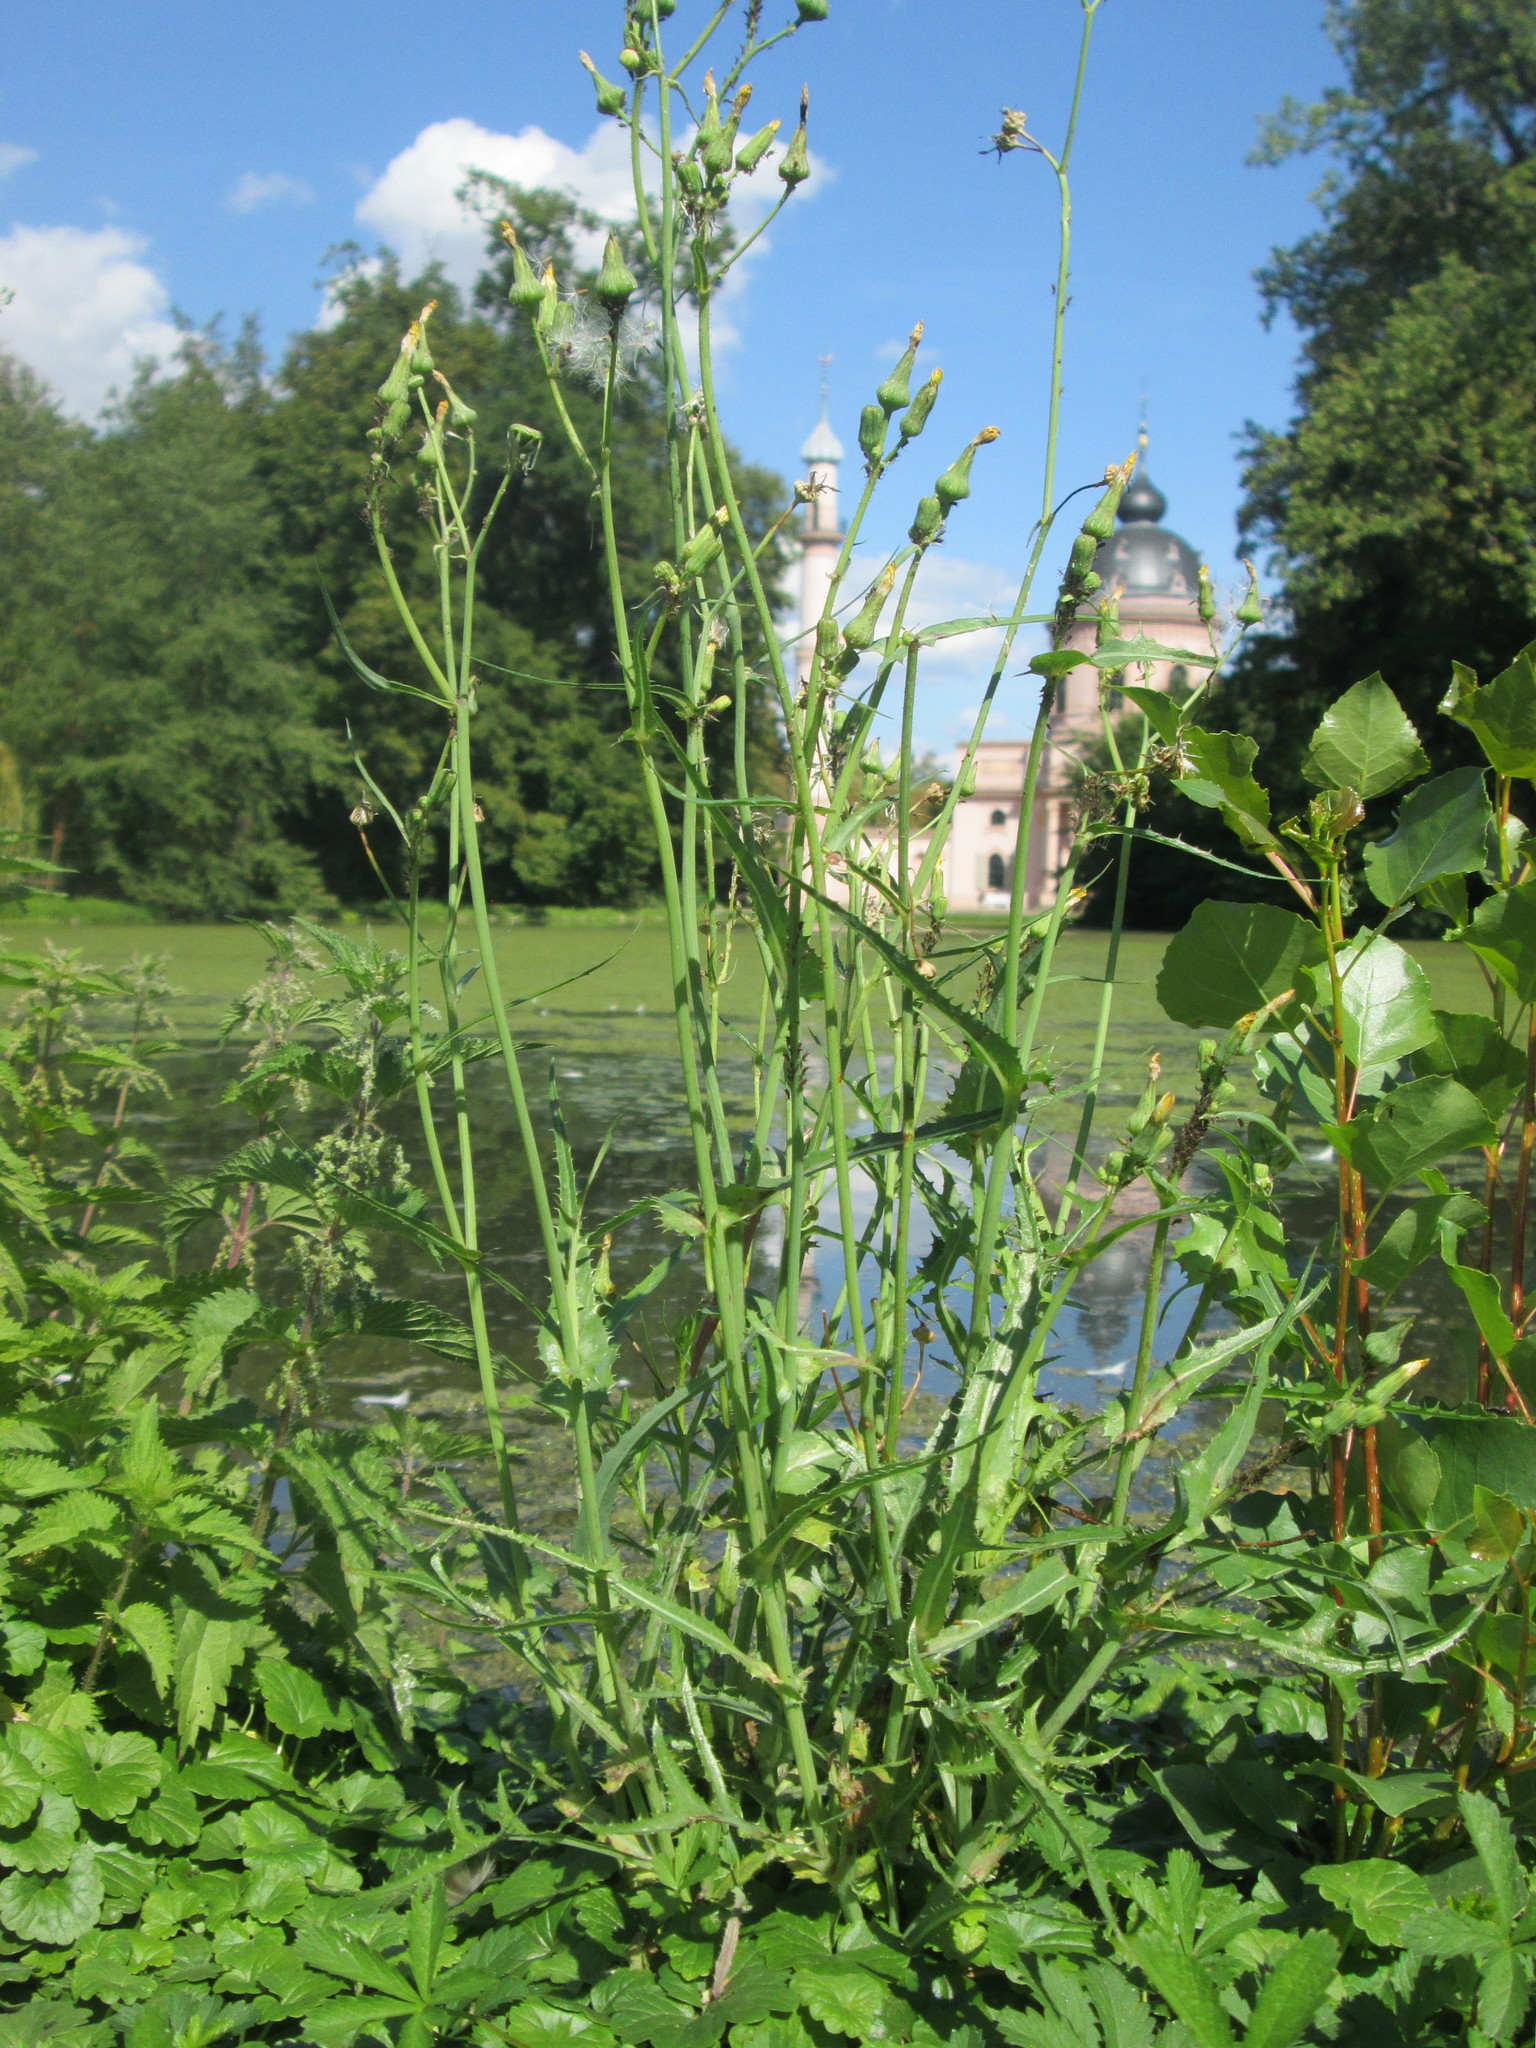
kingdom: Plantae
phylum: Tracheophyta
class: Magnoliopsida
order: Asterales
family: Asteraceae
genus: Sonchus
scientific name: Sonchus asper
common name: Prickly sow-thistle
